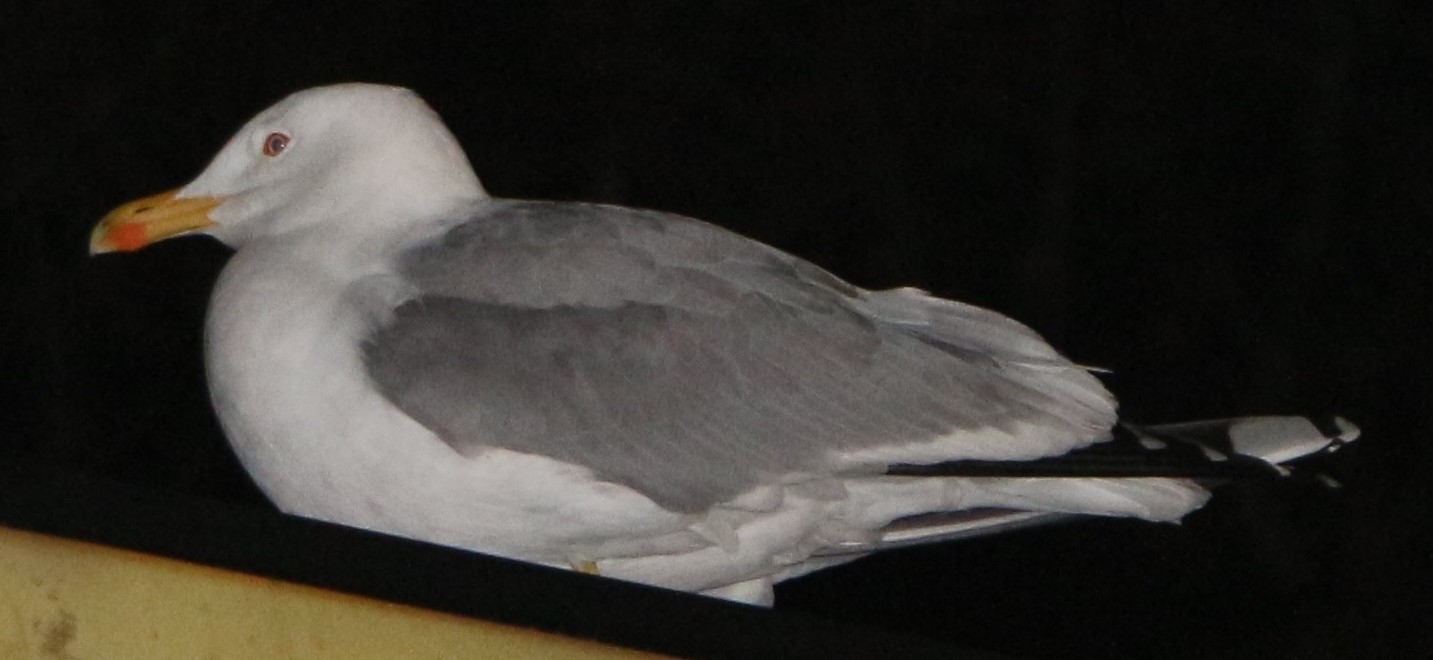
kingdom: Animalia
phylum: Chordata
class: Aves
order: Charadriiformes
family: Laridae
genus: Larus
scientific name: Larus michahellis
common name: Yellow-legged gull
